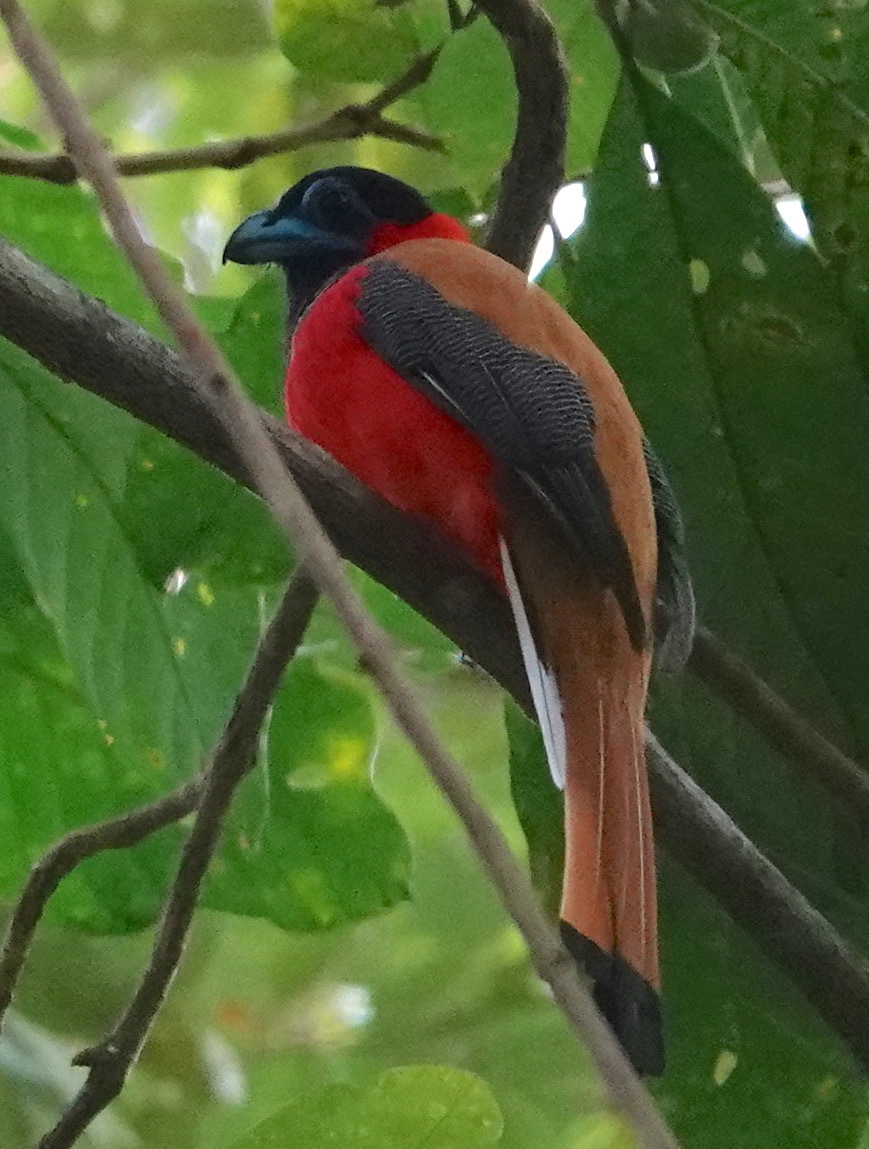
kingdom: Animalia
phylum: Chordata
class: Aves
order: Trogoniformes
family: Trogonidae
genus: Harpactes
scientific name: Harpactes kasumba
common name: Red-naped trogon
